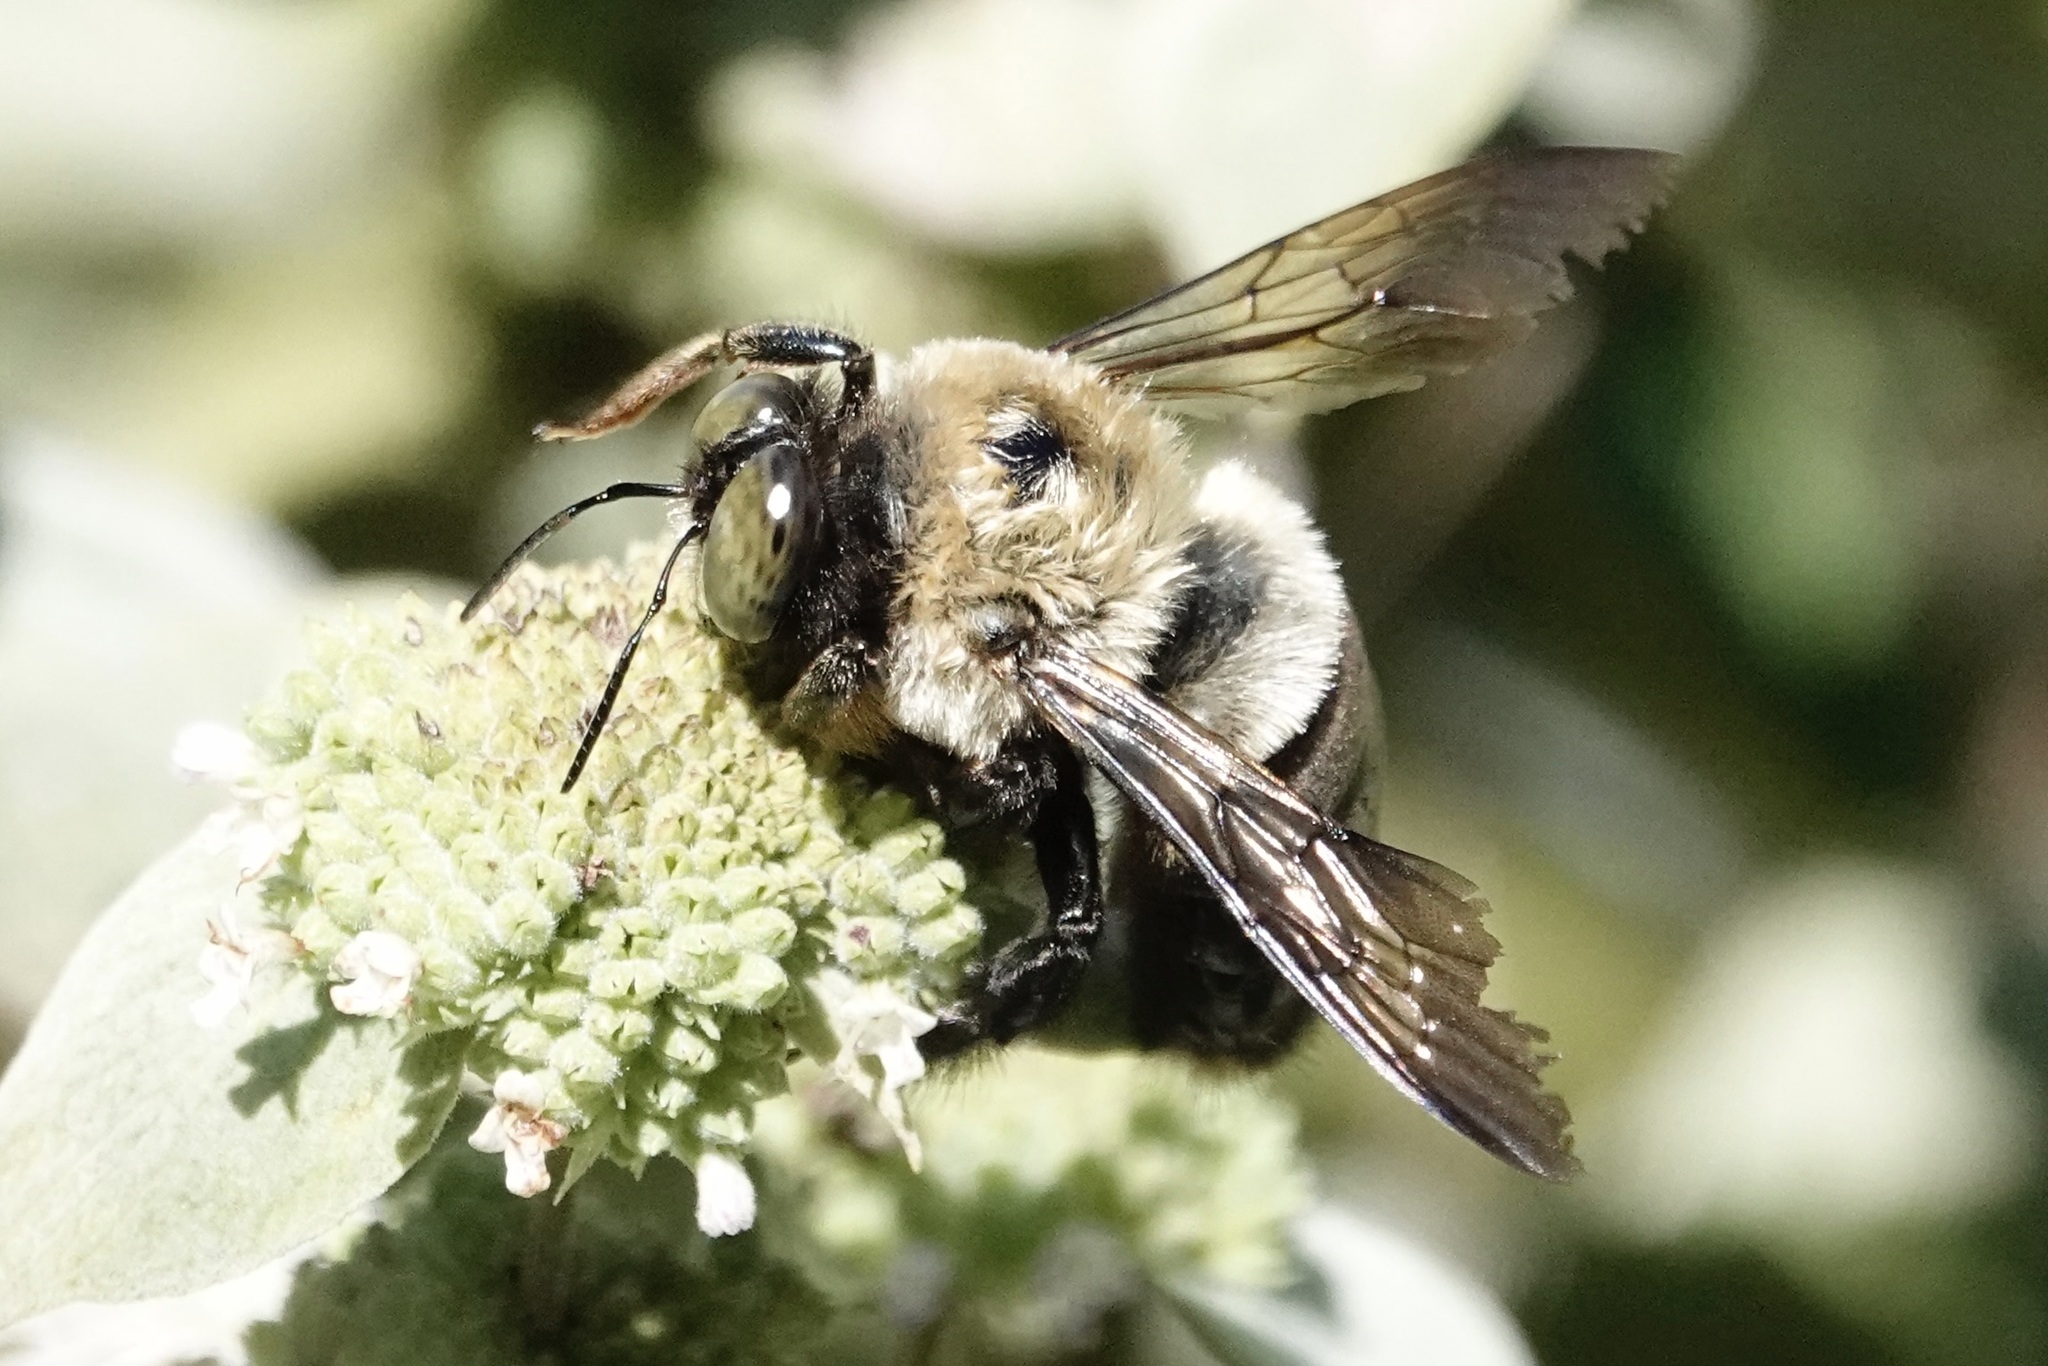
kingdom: Animalia
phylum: Arthropoda
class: Insecta
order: Hymenoptera
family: Apidae
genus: Xylocopa
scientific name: Xylocopa virginica
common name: Carpenter bee
